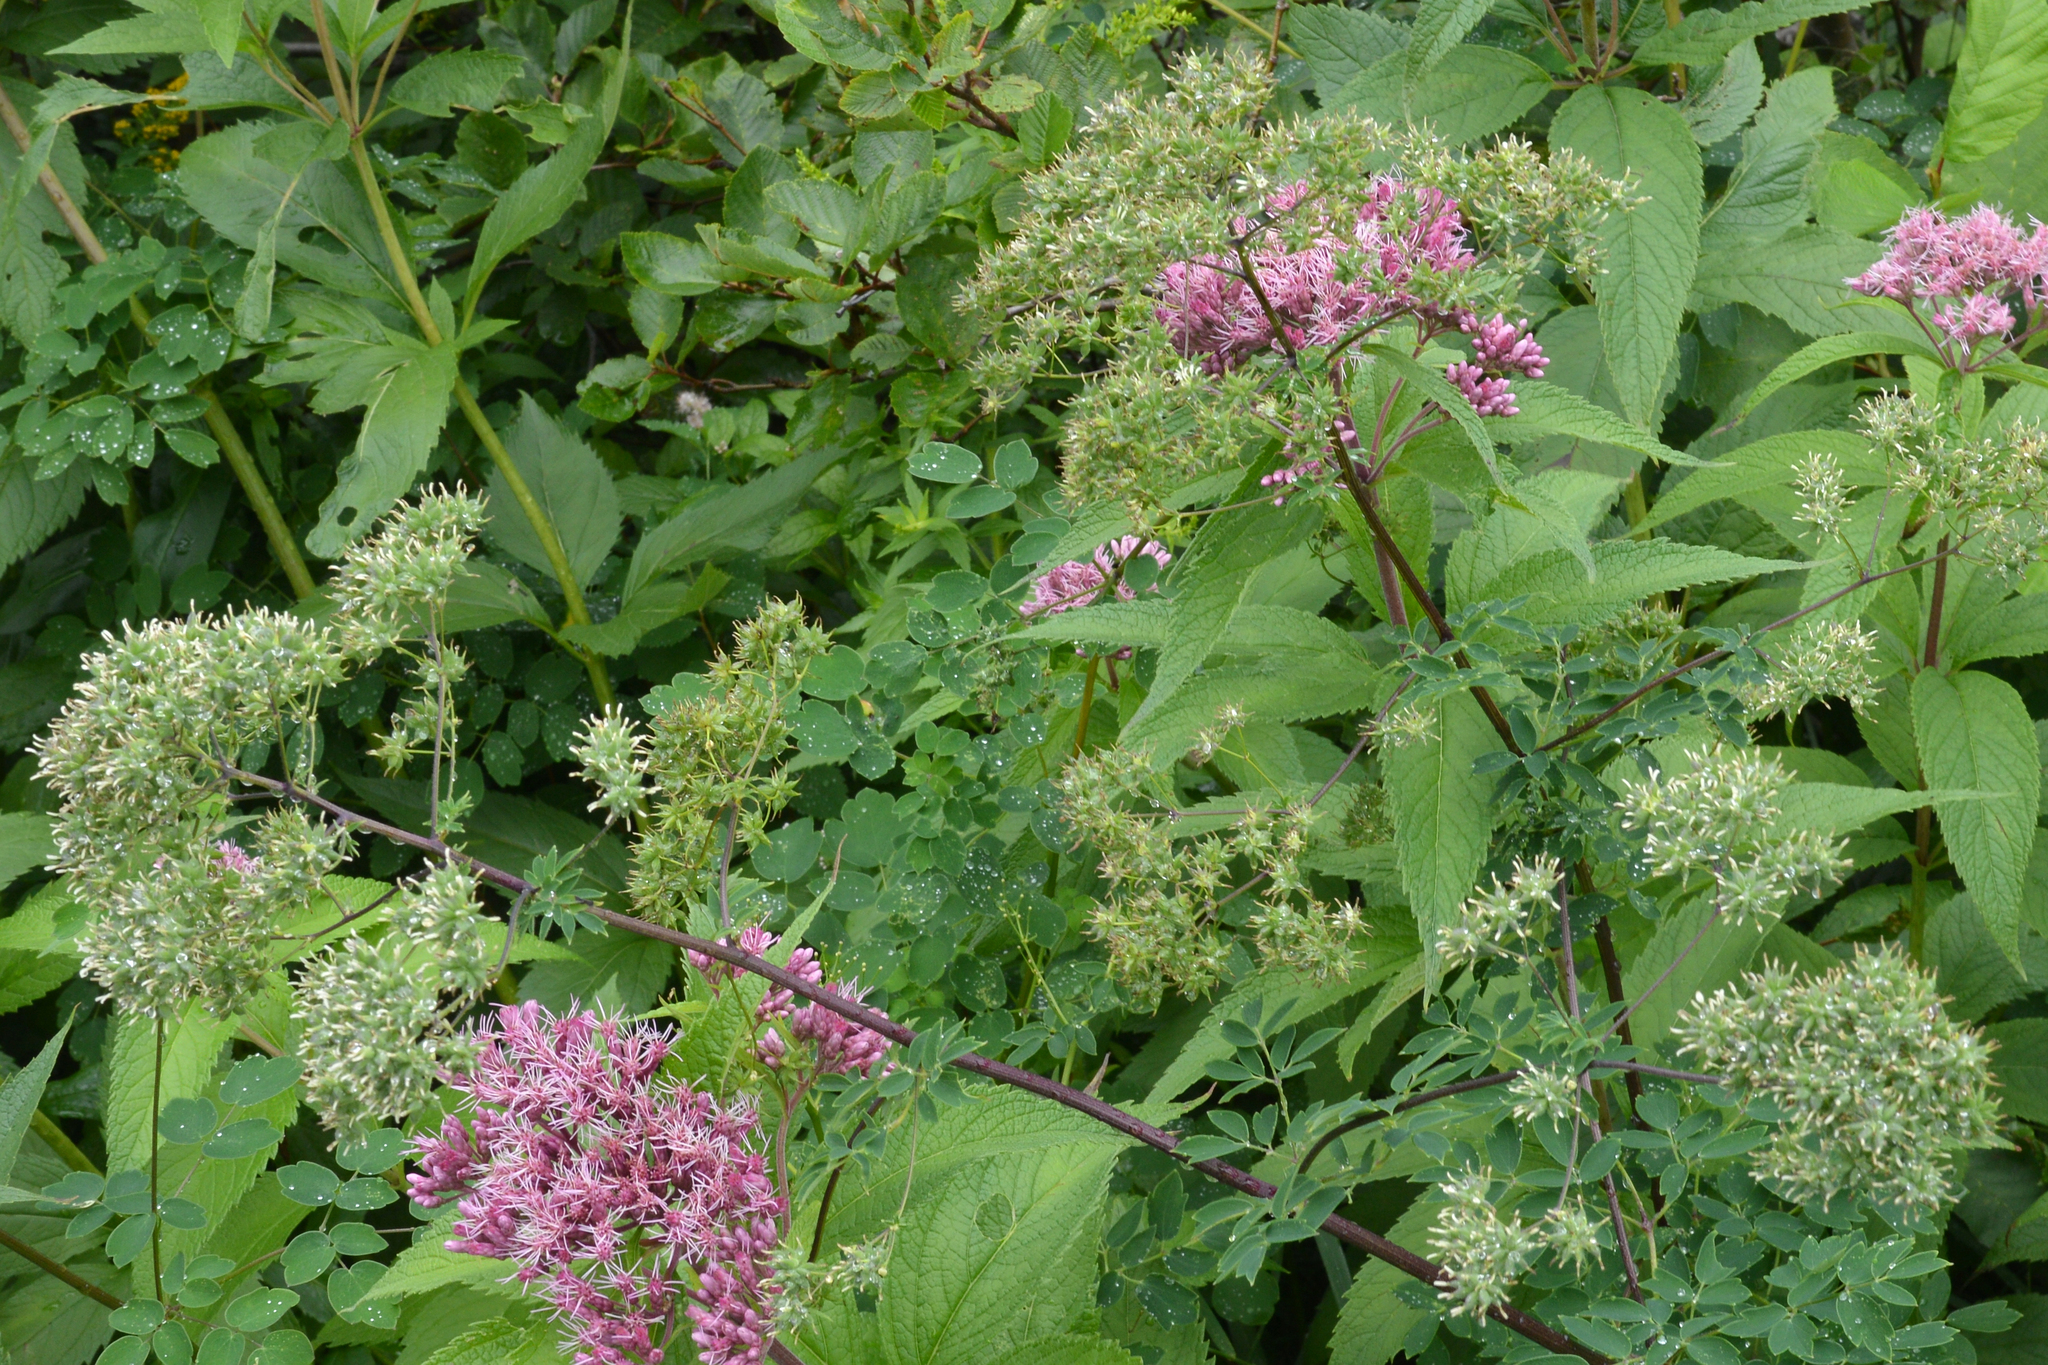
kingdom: Plantae
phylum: Tracheophyta
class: Magnoliopsida
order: Asterales
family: Asteraceae
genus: Eutrochium
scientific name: Eutrochium maculatum
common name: Spotted joe pye weed
